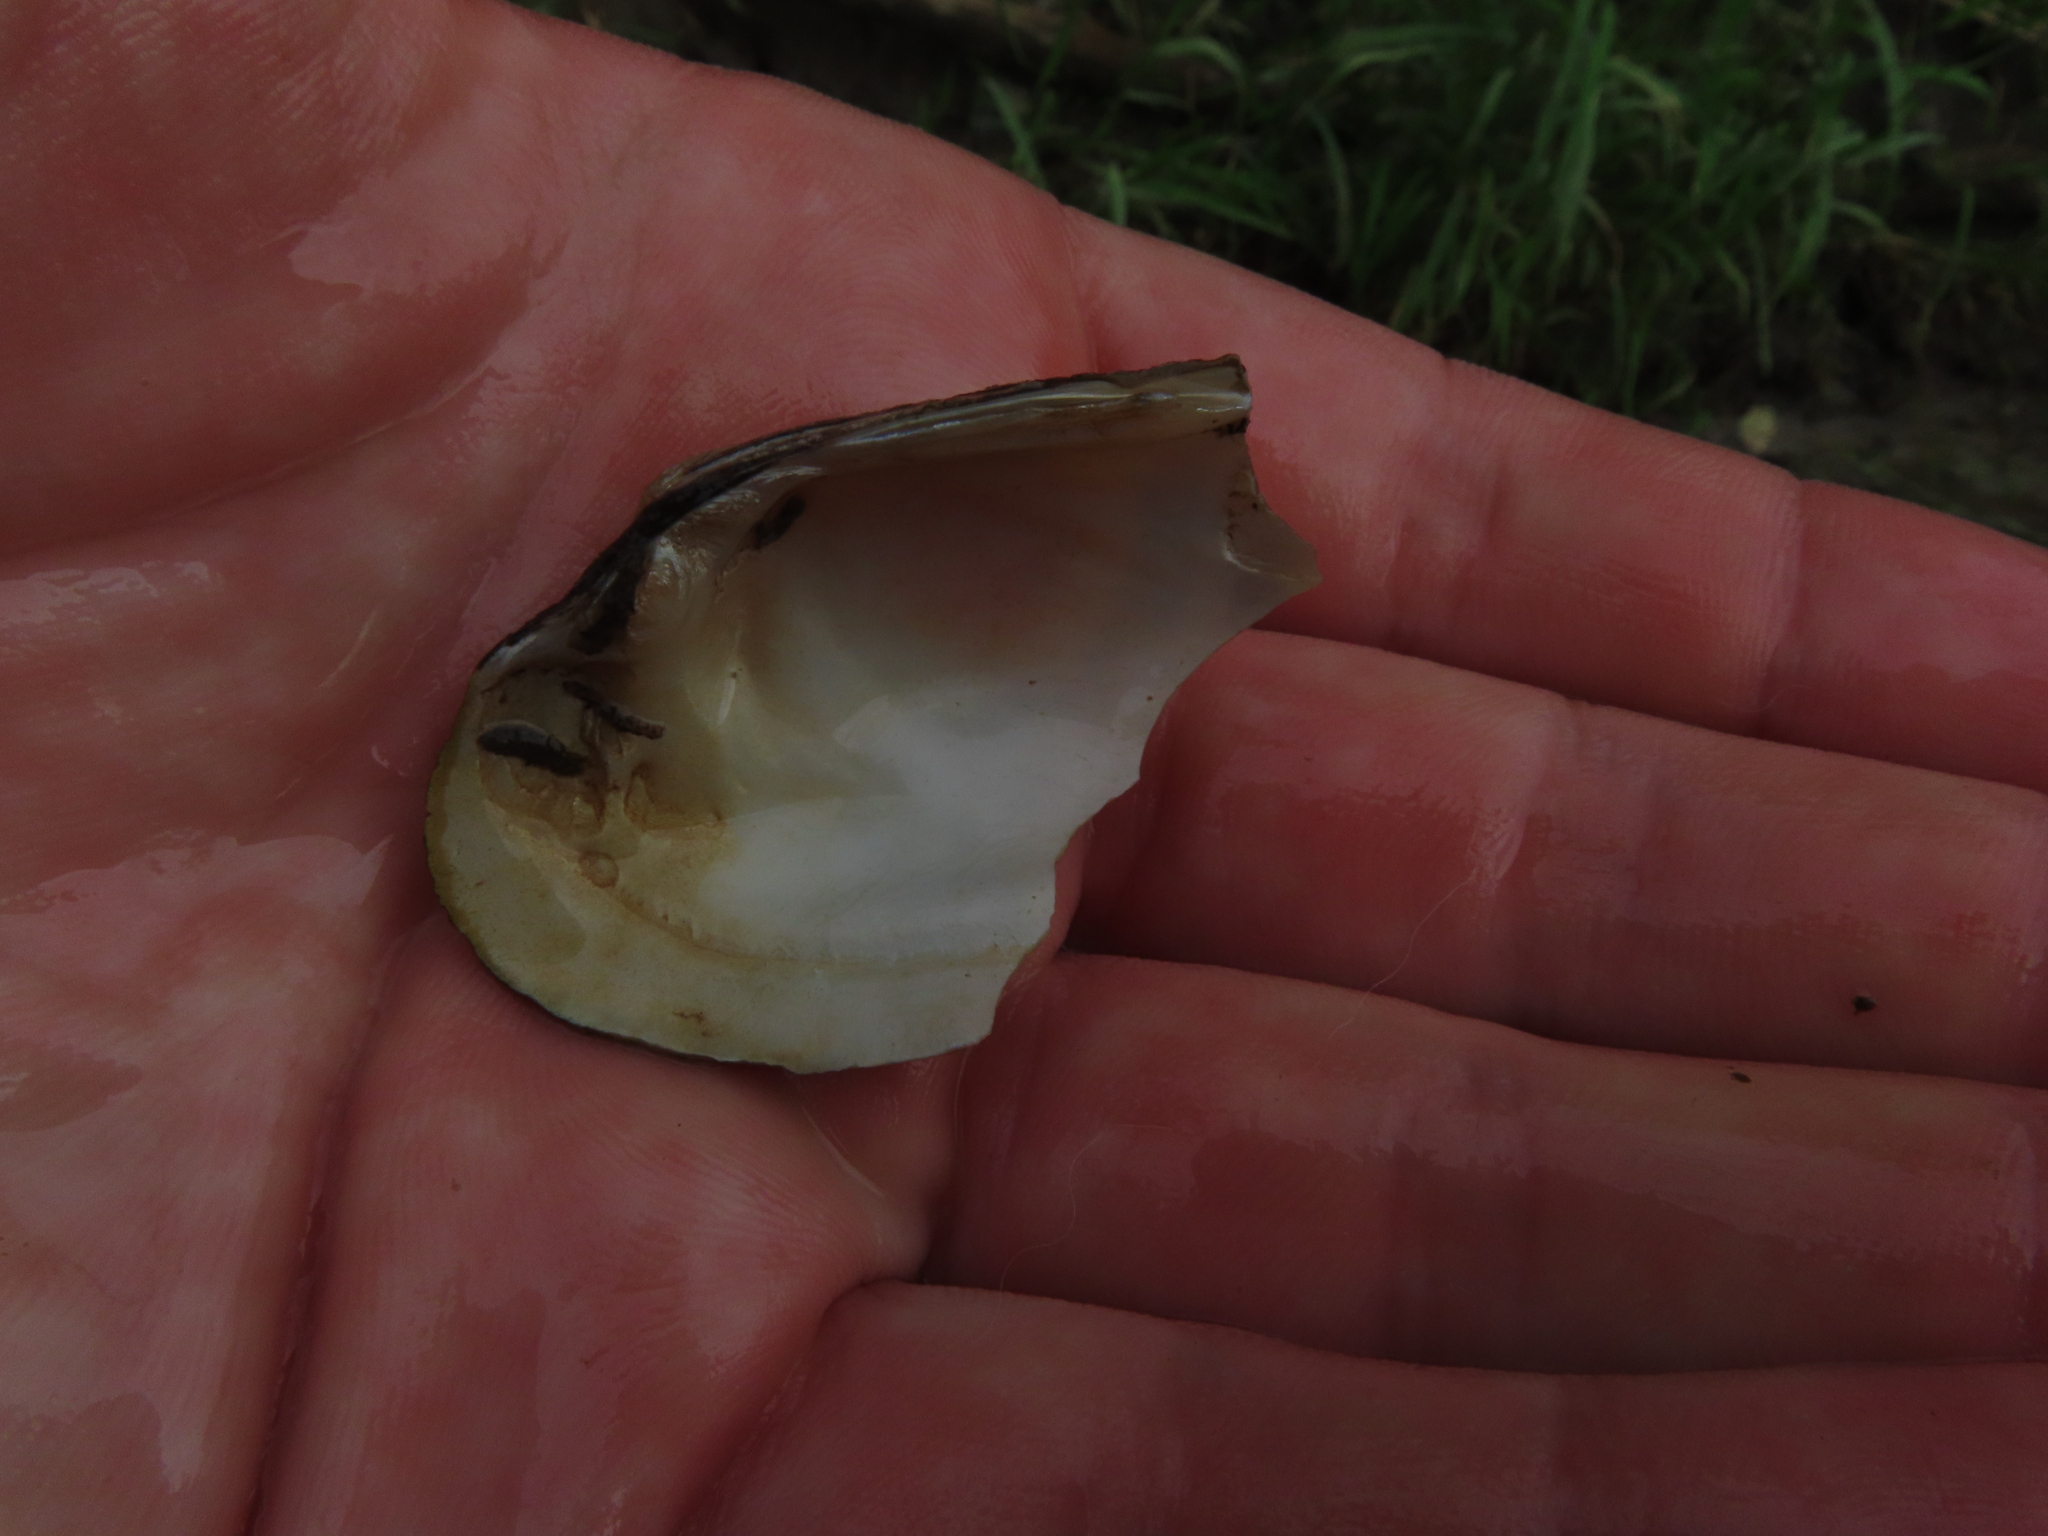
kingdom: Animalia
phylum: Mollusca
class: Bivalvia
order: Unionida
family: Unionidae
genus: Cambarunio
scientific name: Cambarunio iris
